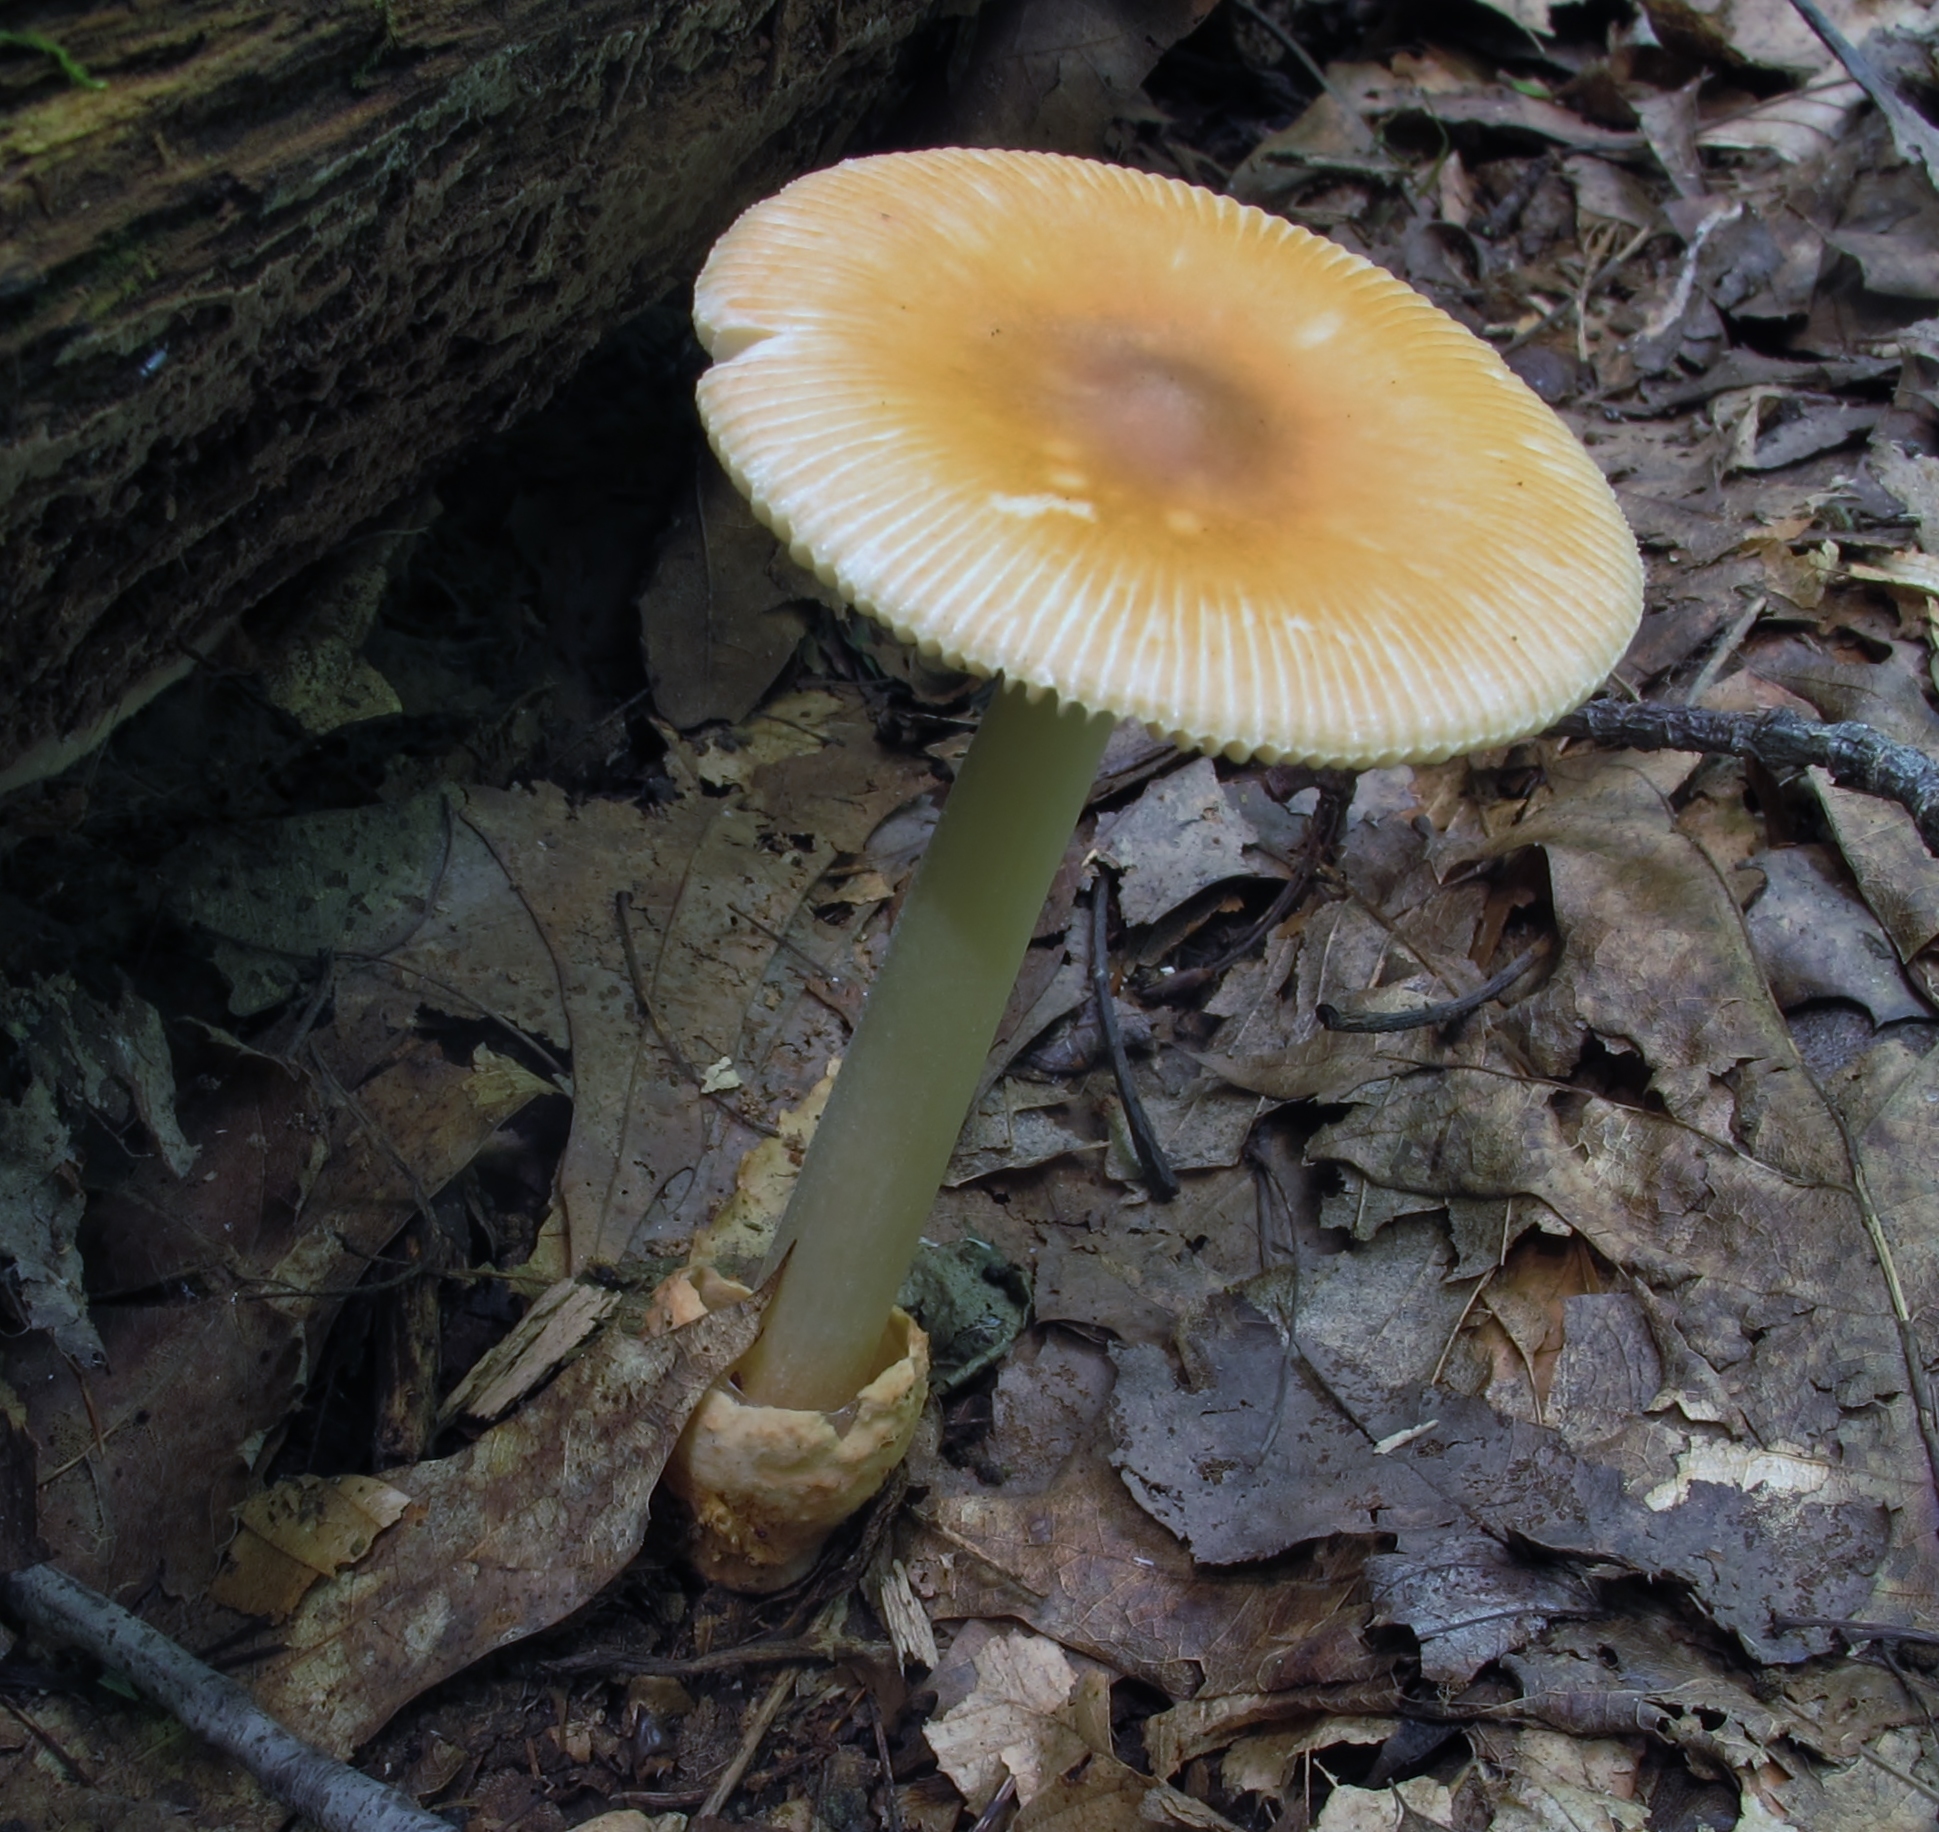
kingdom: Fungi
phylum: Basidiomycota
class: Agaricomycetes
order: Agaricales
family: Amanitaceae
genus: Amanita
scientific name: Amanita fulva
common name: Tawny grisette
